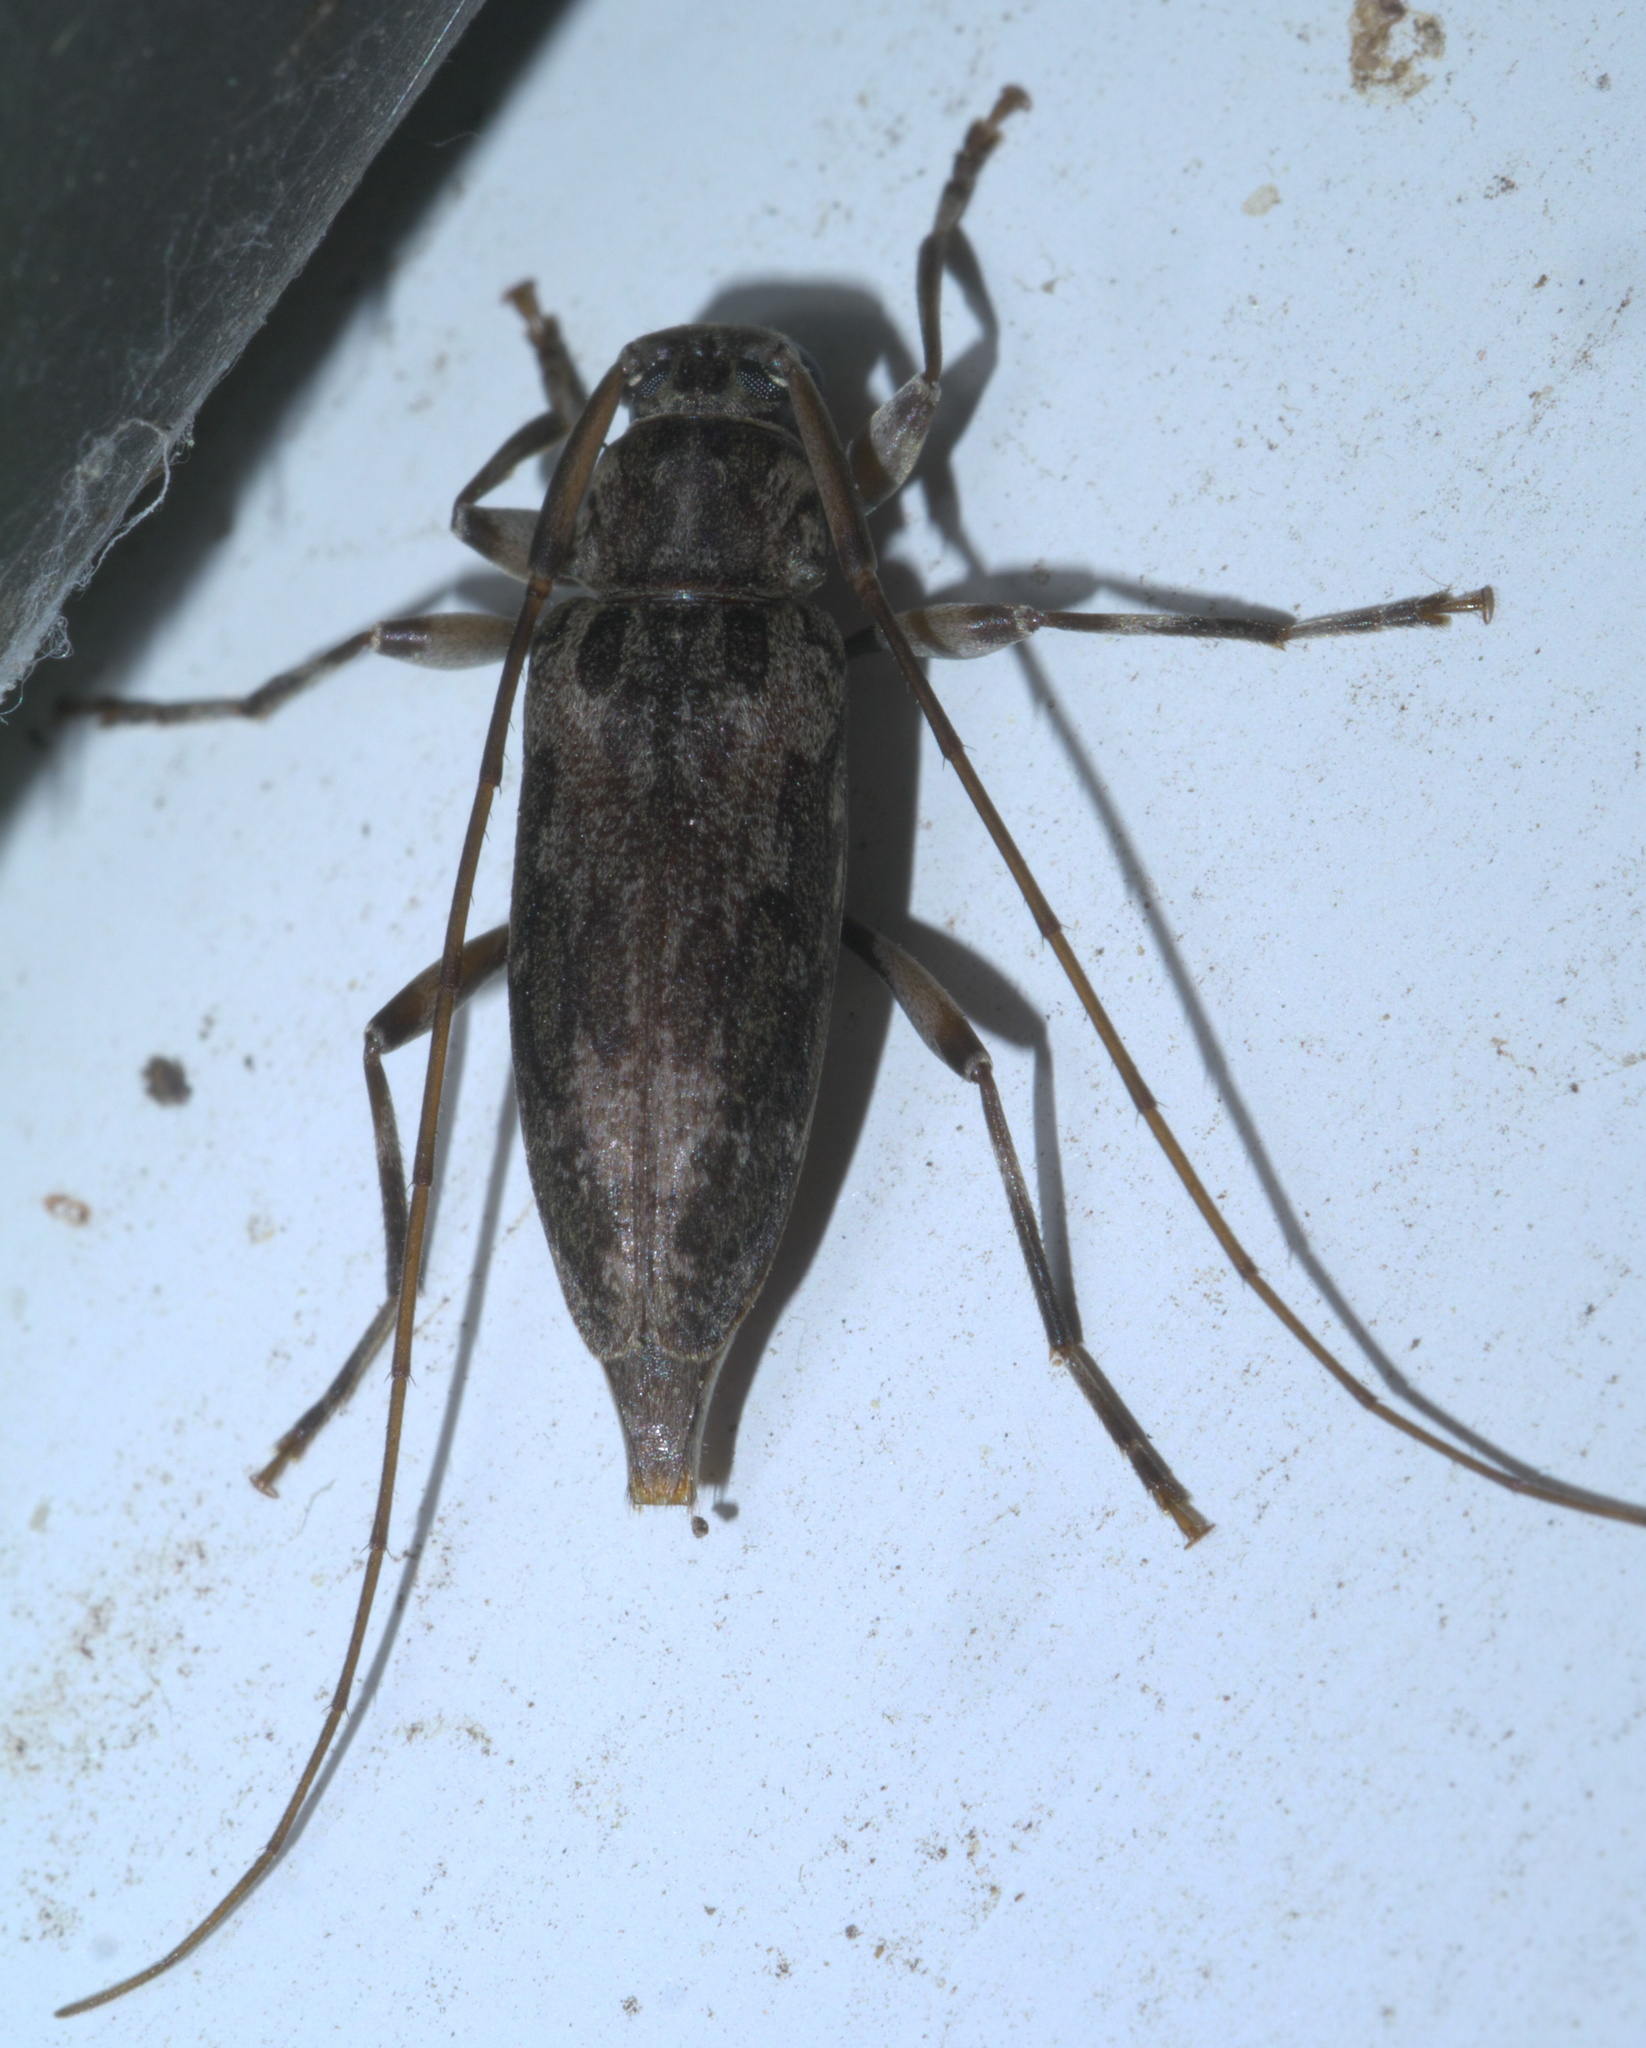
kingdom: Animalia
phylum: Arthropoda
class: Insecta
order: Coleoptera
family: Cerambycidae
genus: Lepturges
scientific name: Lepturges confluens
